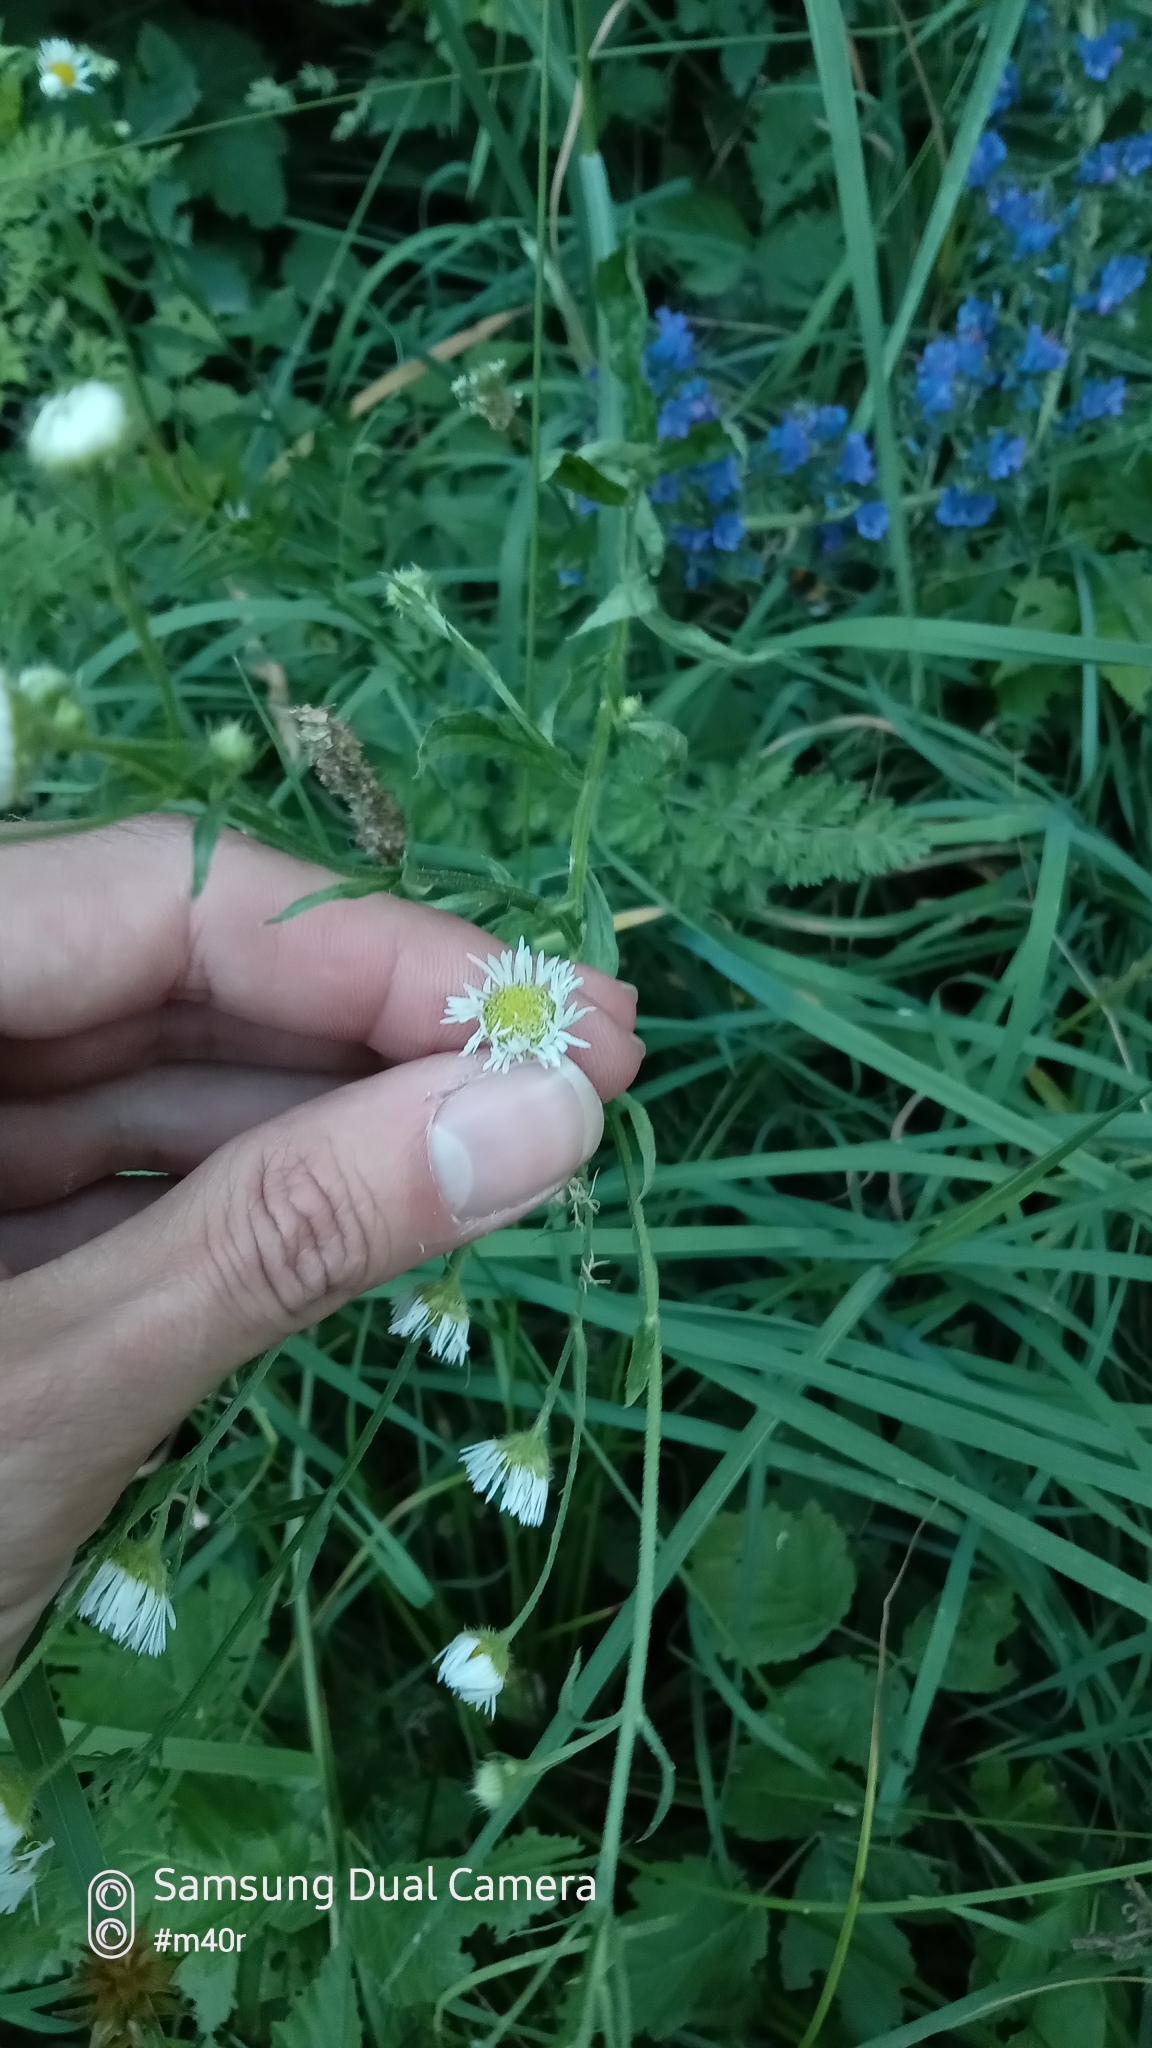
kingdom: Plantae
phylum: Tracheophyta
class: Magnoliopsida
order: Asterales
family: Asteraceae
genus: Erigeron
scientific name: Erigeron annuus
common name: Tall fleabane
